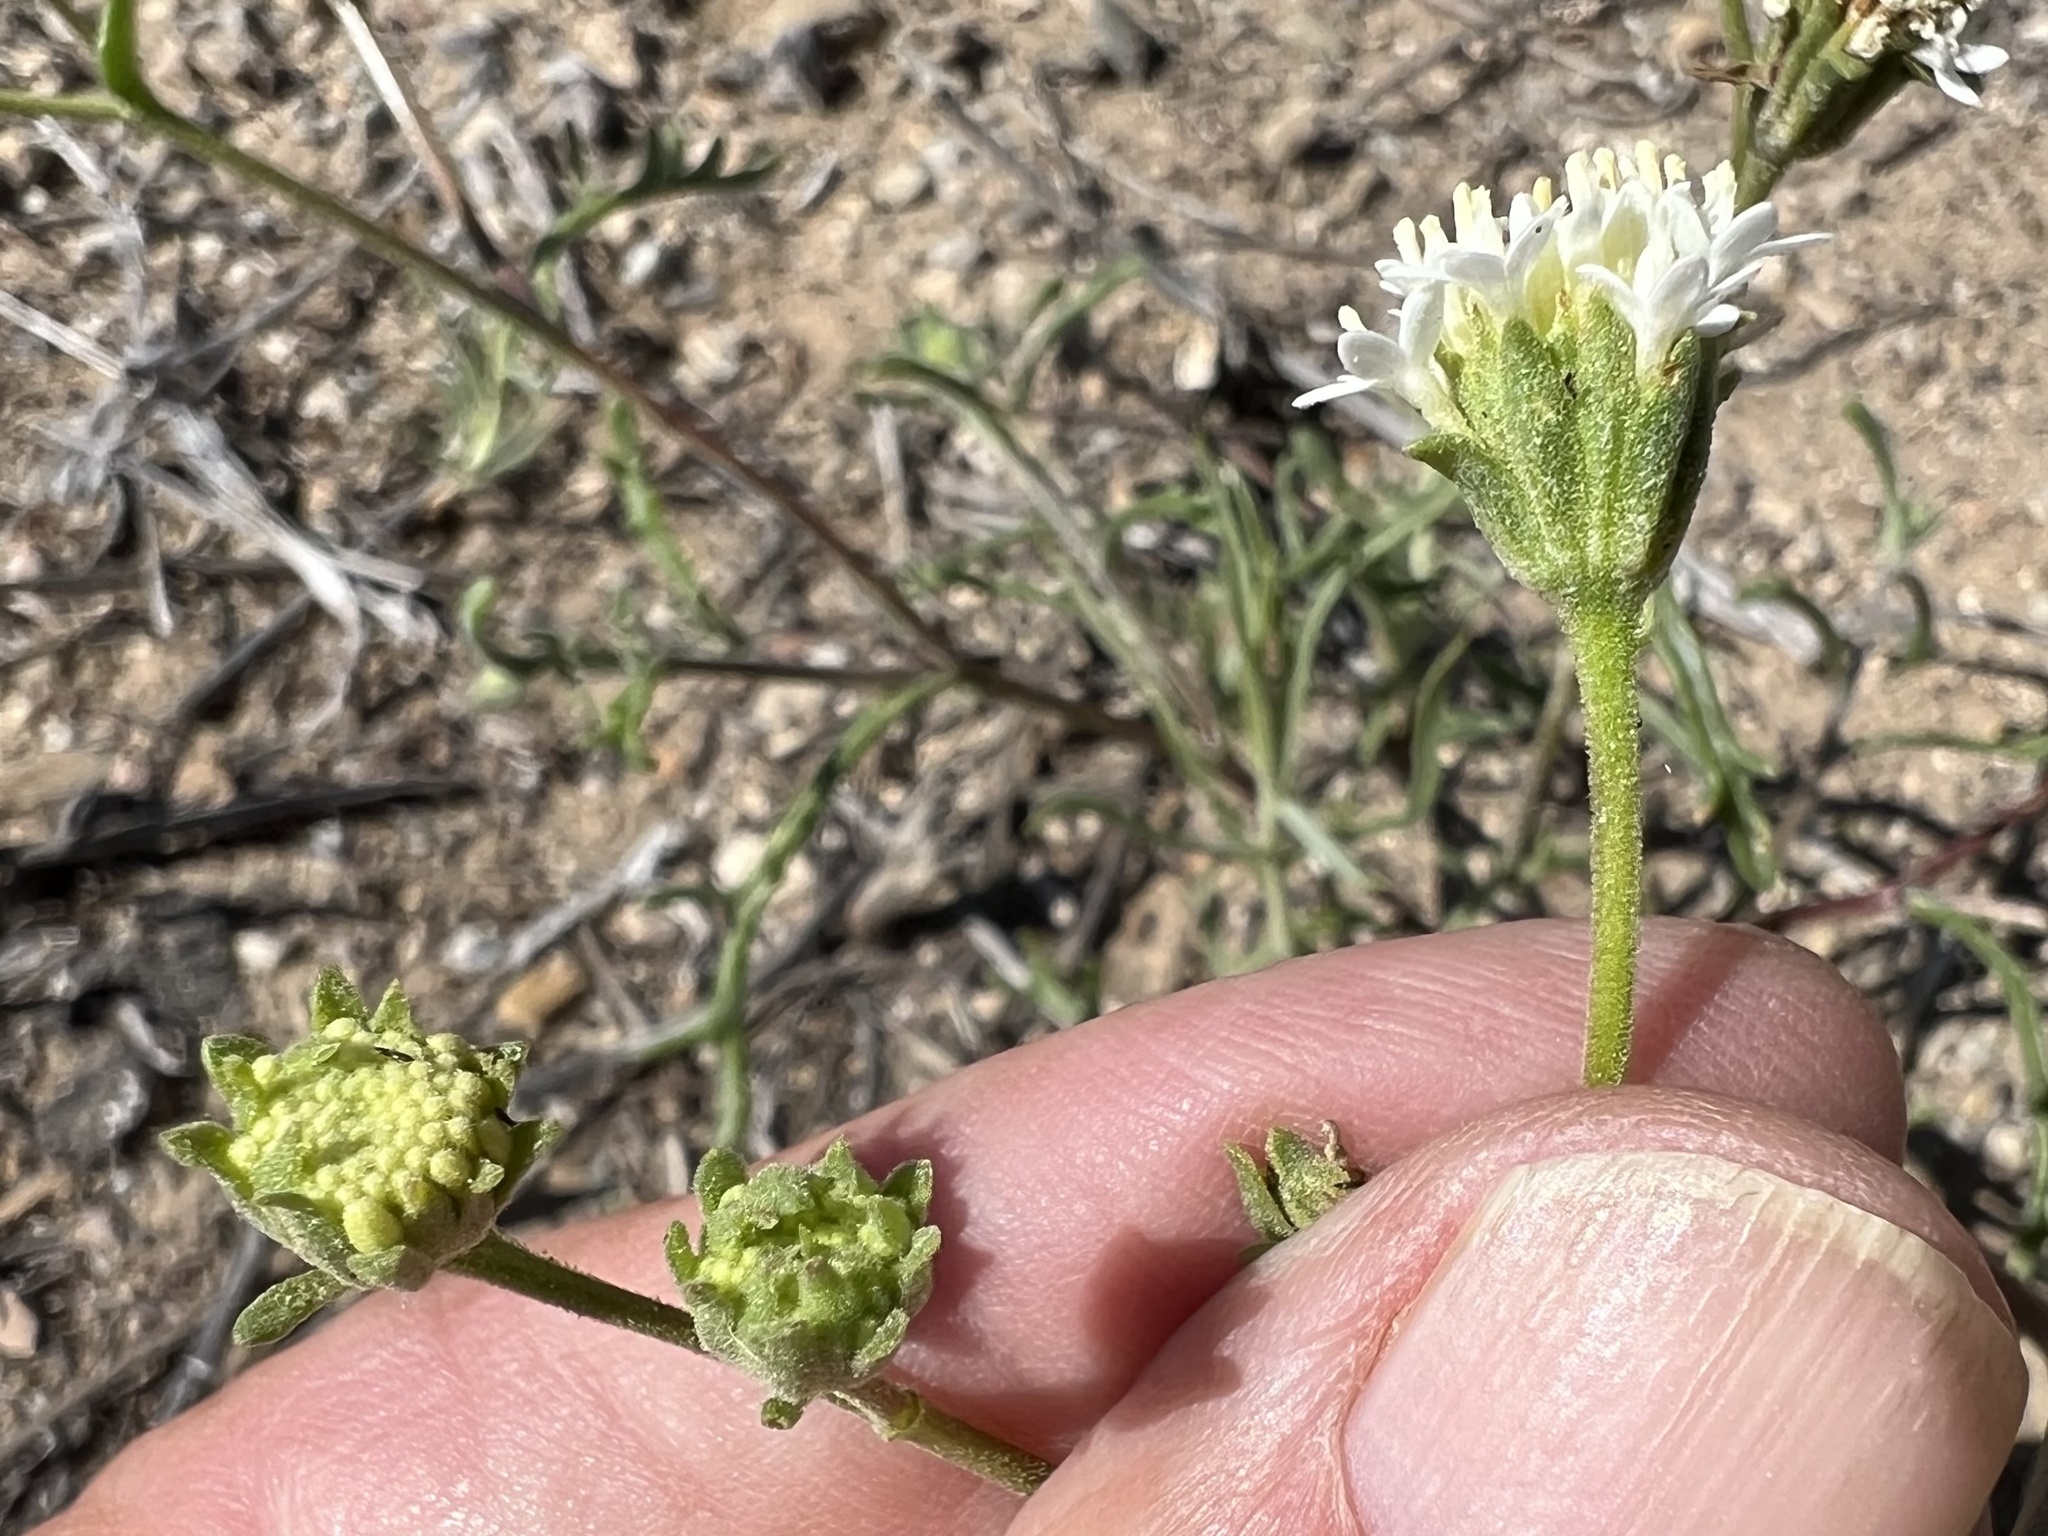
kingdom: Plantae
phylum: Tracheophyta
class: Magnoliopsida
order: Asterales
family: Asteraceae
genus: Chaenactis
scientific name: Chaenactis stevioides
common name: Desert pincushion
